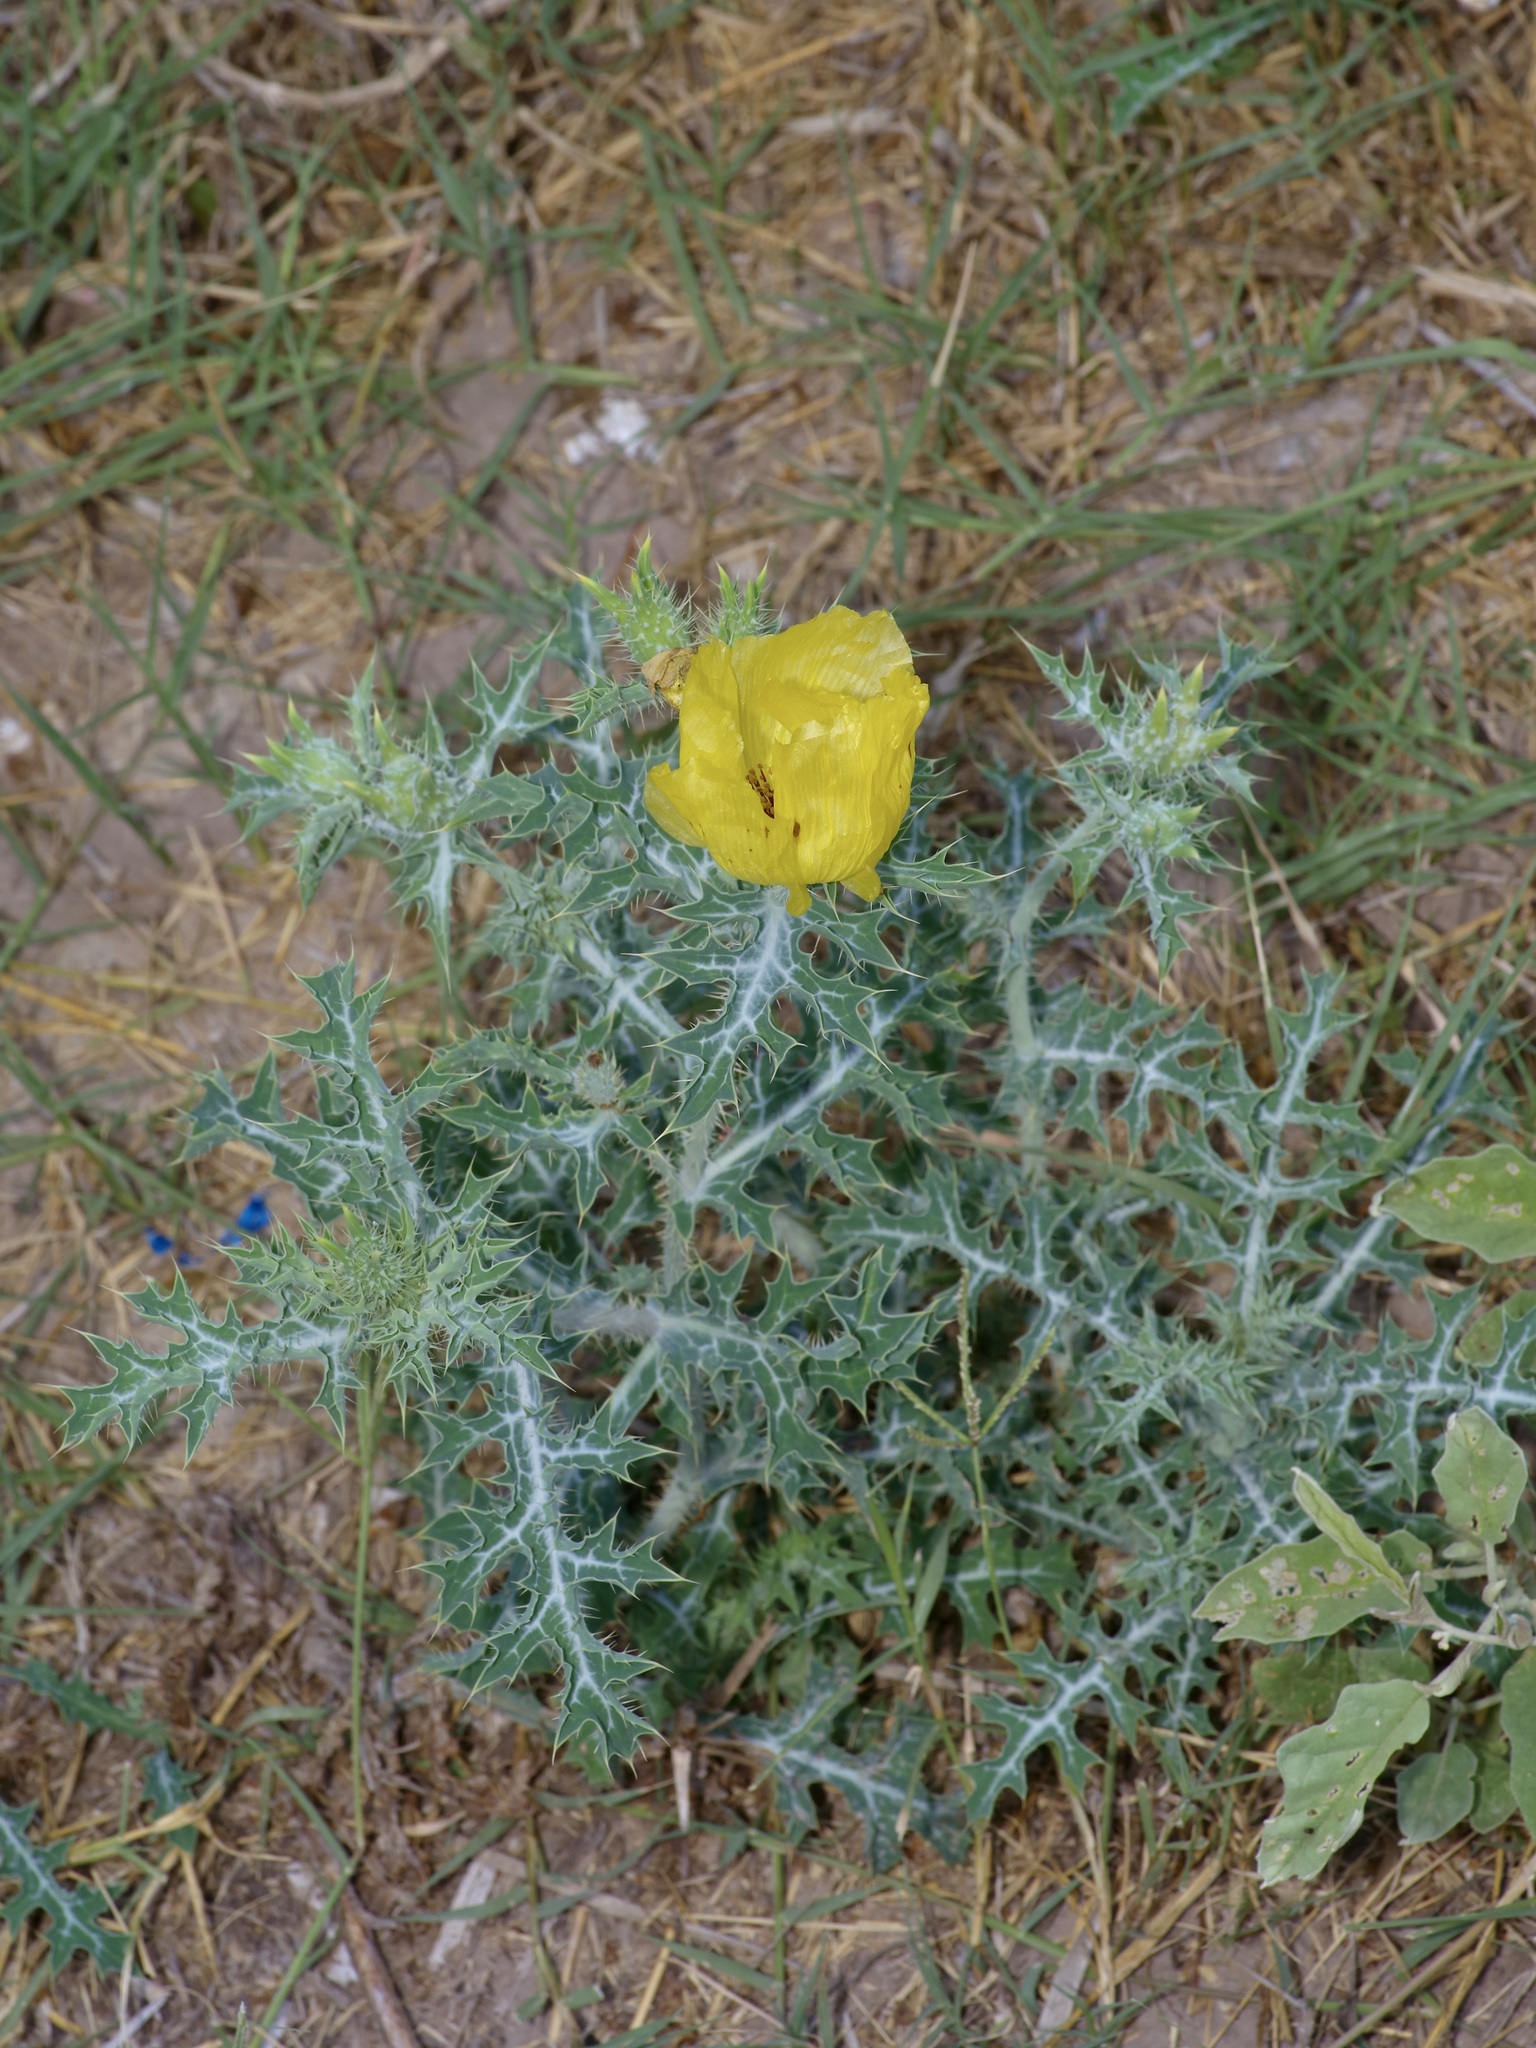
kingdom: Plantae
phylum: Tracheophyta
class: Magnoliopsida
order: Ranunculales
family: Papaveraceae
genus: Argemone
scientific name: Argemone aenea
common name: Golden prickly-poppy
